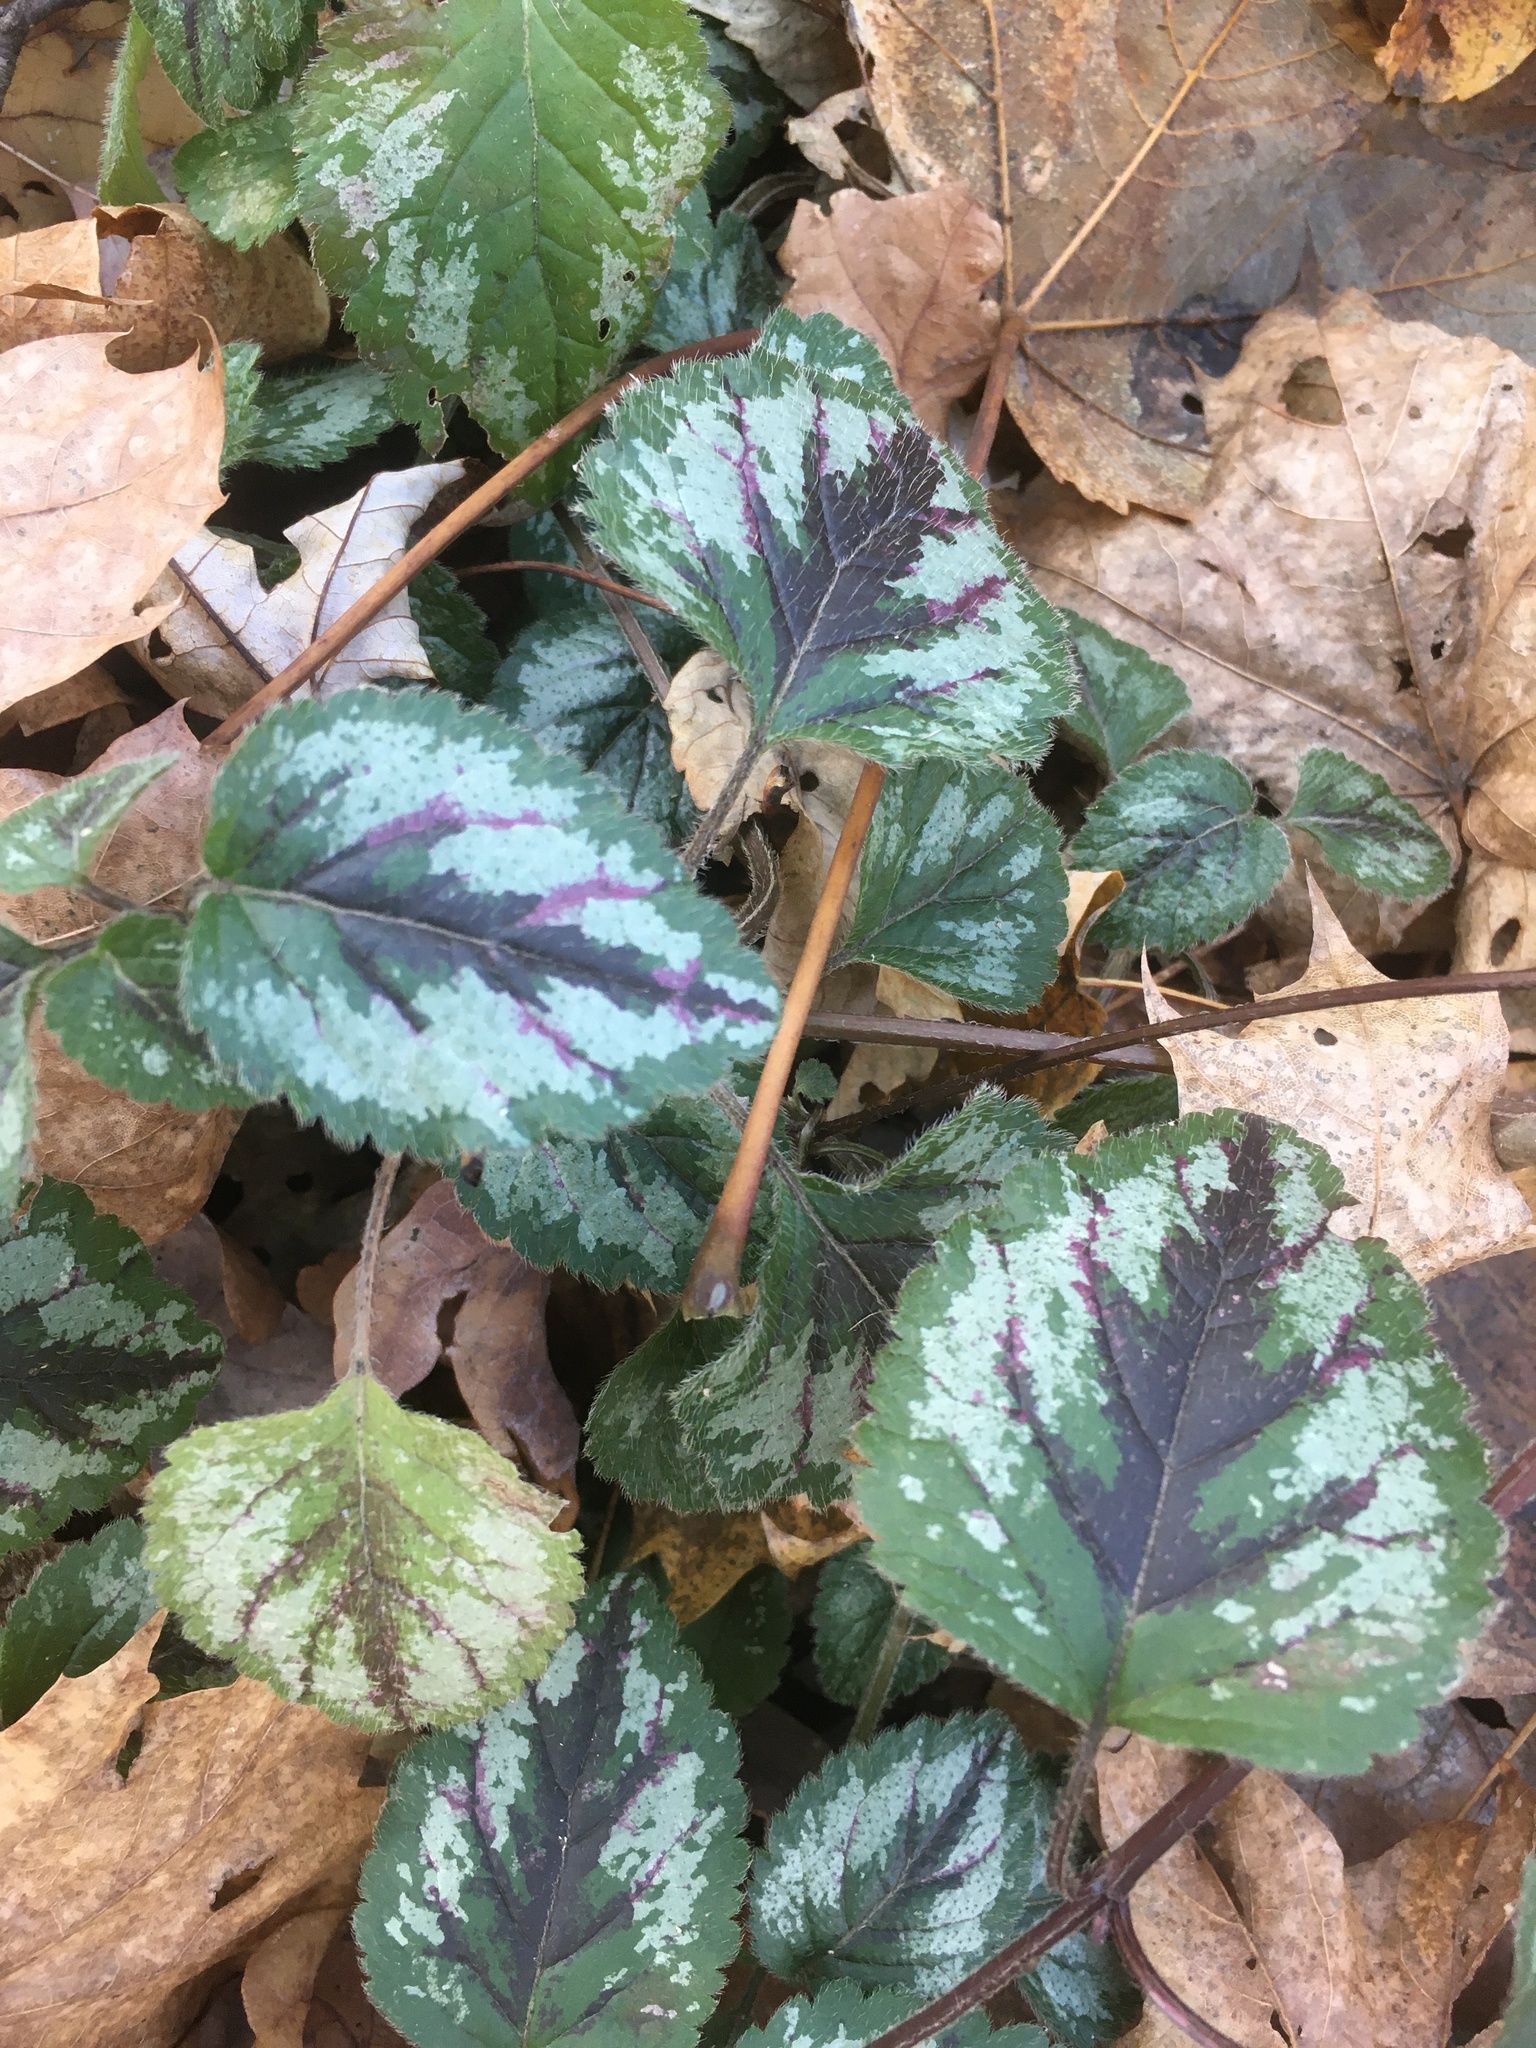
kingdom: Plantae
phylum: Tracheophyta
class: Magnoliopsida
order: Lamiales
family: Lamiaceae
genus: Lamium
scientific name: Lamium galeobdolon
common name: Yellow archangel
